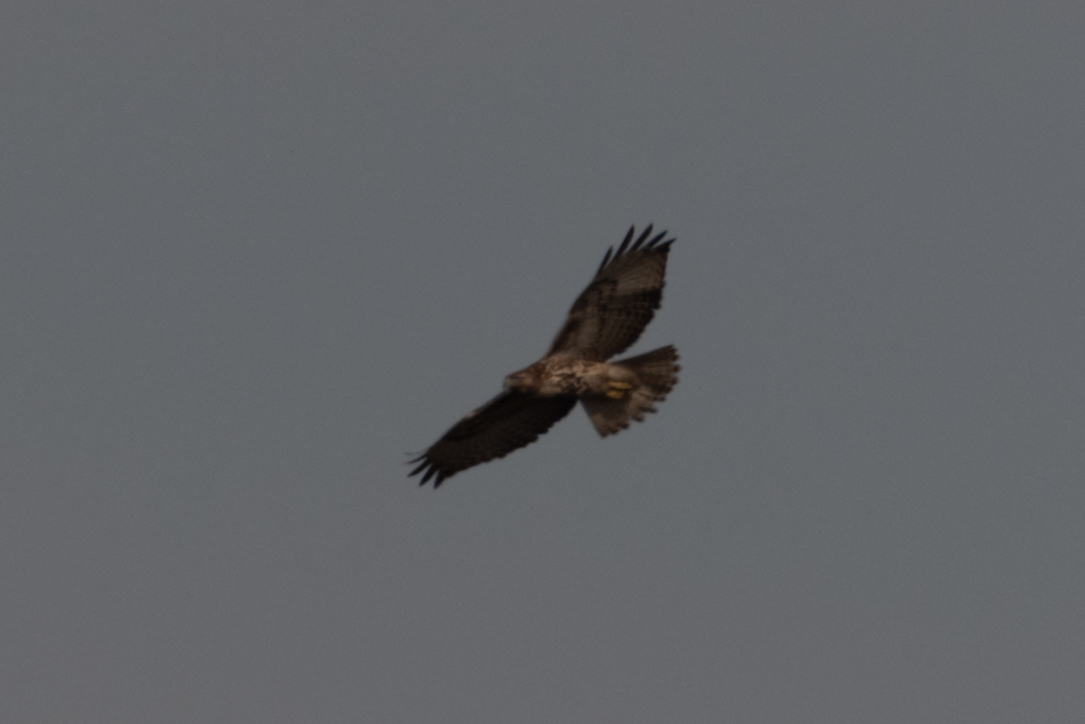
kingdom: Animalia
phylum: Chordata
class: Aves
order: Accipitriformes
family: Accipitridae
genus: Buteo
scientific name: Buteo jamaicensis
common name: Red-tailed hawk
